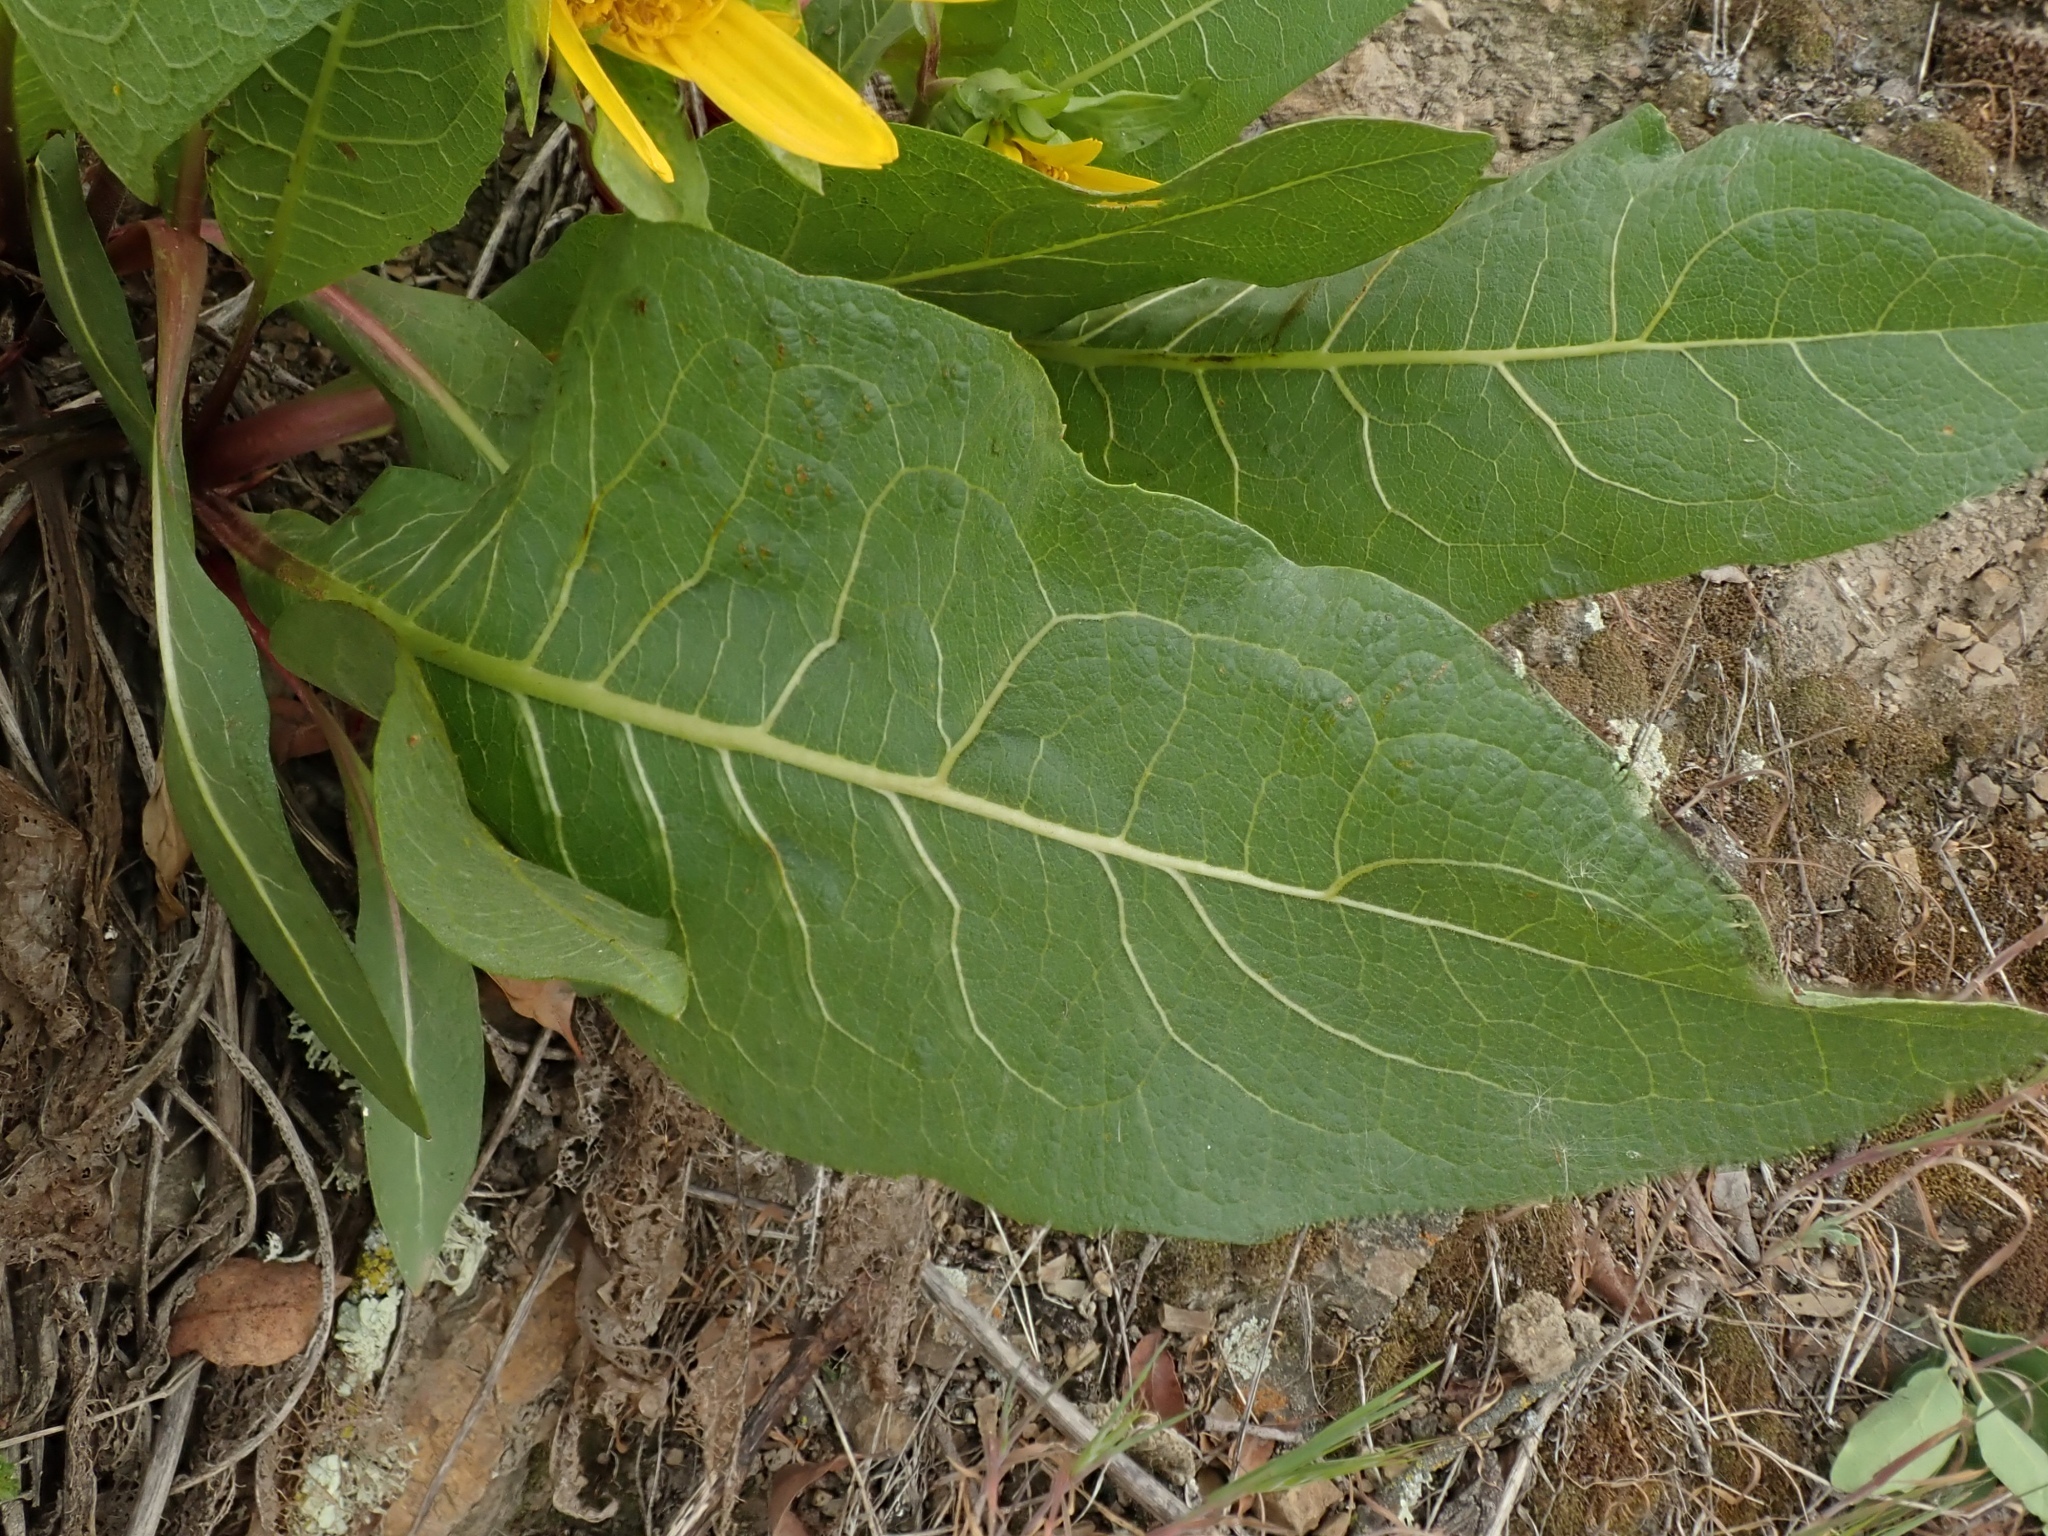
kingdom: Plantae
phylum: Tracheophyta
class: Magnoliopsida
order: Asterales
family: Asteraceae
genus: Wyethia
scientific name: Wyethia glabra
